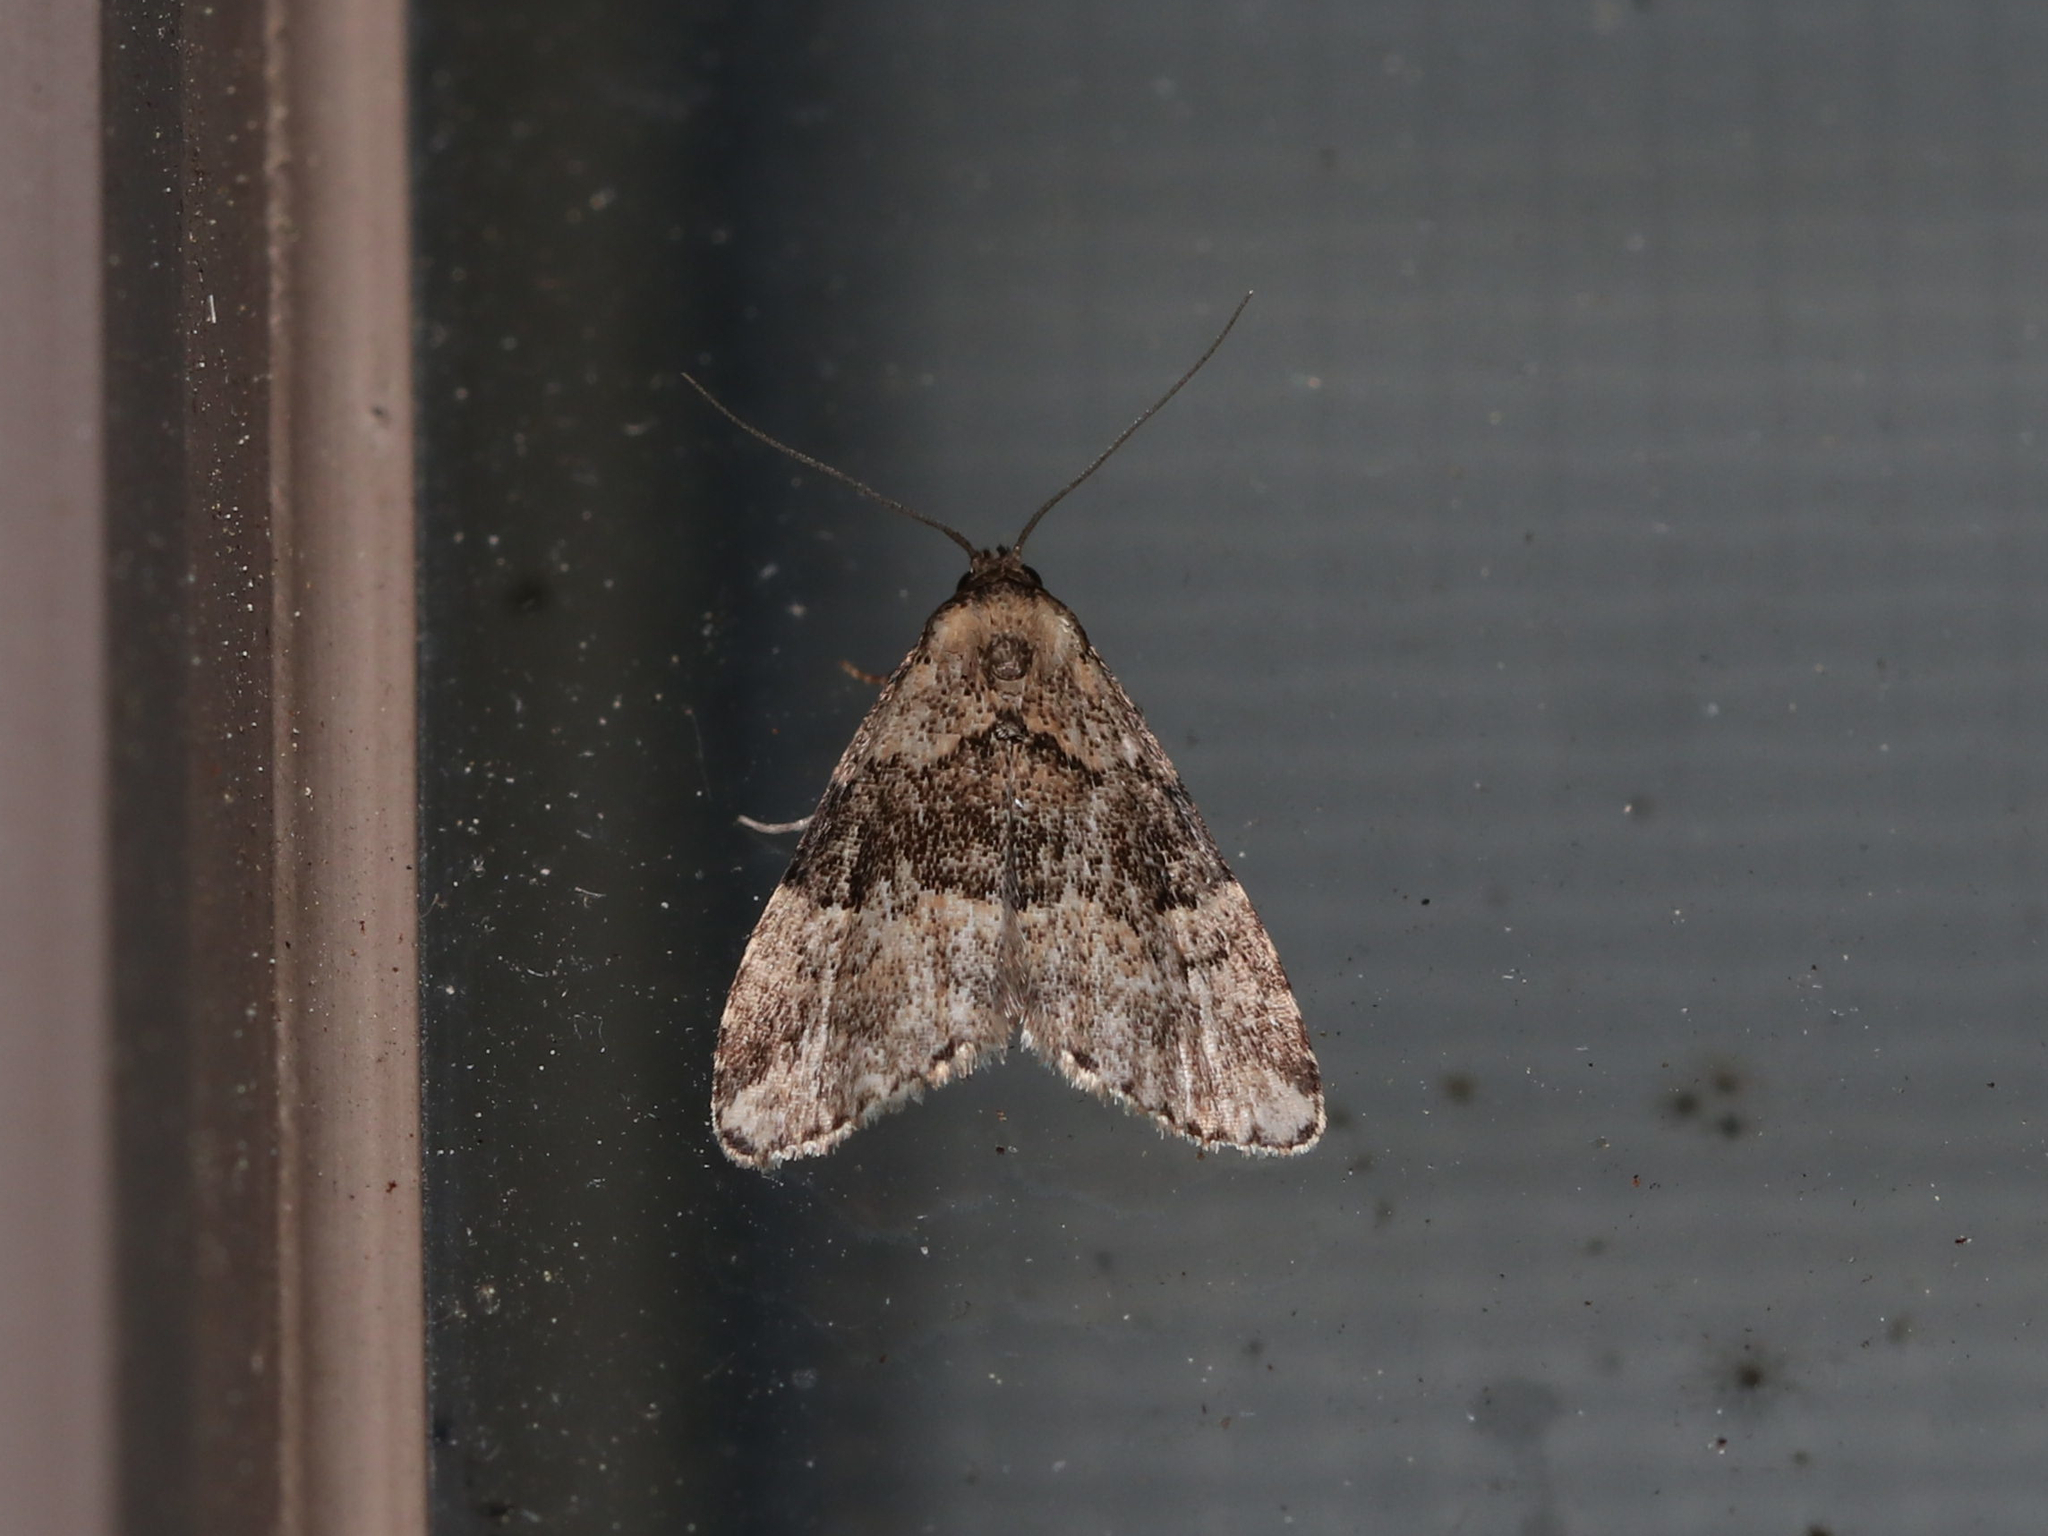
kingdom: Animalia
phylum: Arthropoda
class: Insecta
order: Lepidoptera
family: Erebidae
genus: Dyspyralis
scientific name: Dyspyralis illocata
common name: Visitation moth
